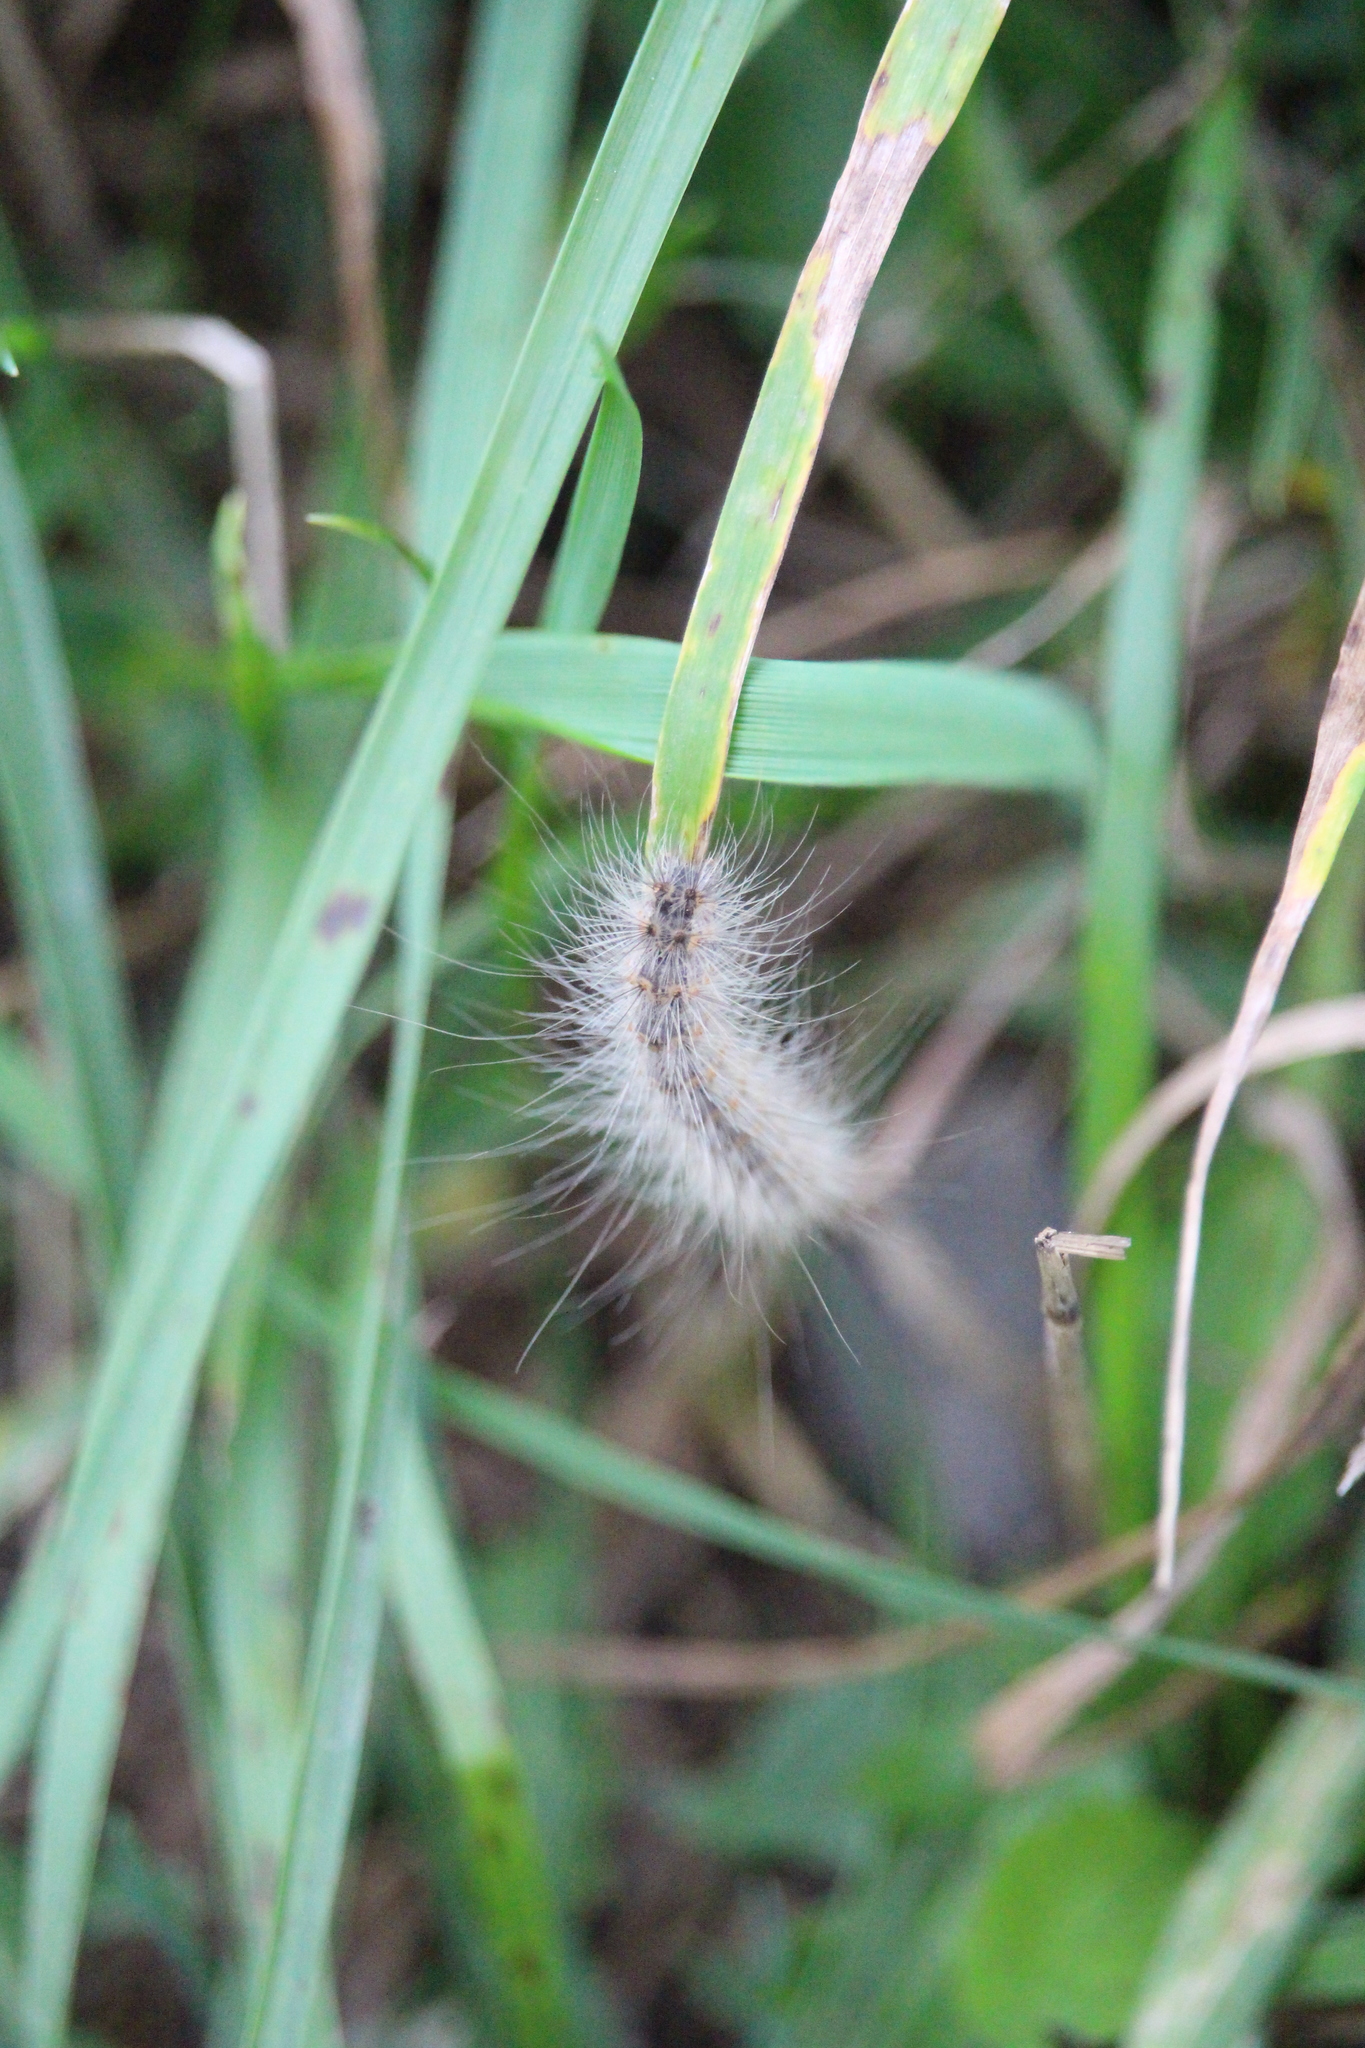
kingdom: Animalia
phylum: Arthropoda
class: Insecta
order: Lepidoptera
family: Erebidae
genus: Hyphantria
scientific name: Hyphantria cunea
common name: American white moth
